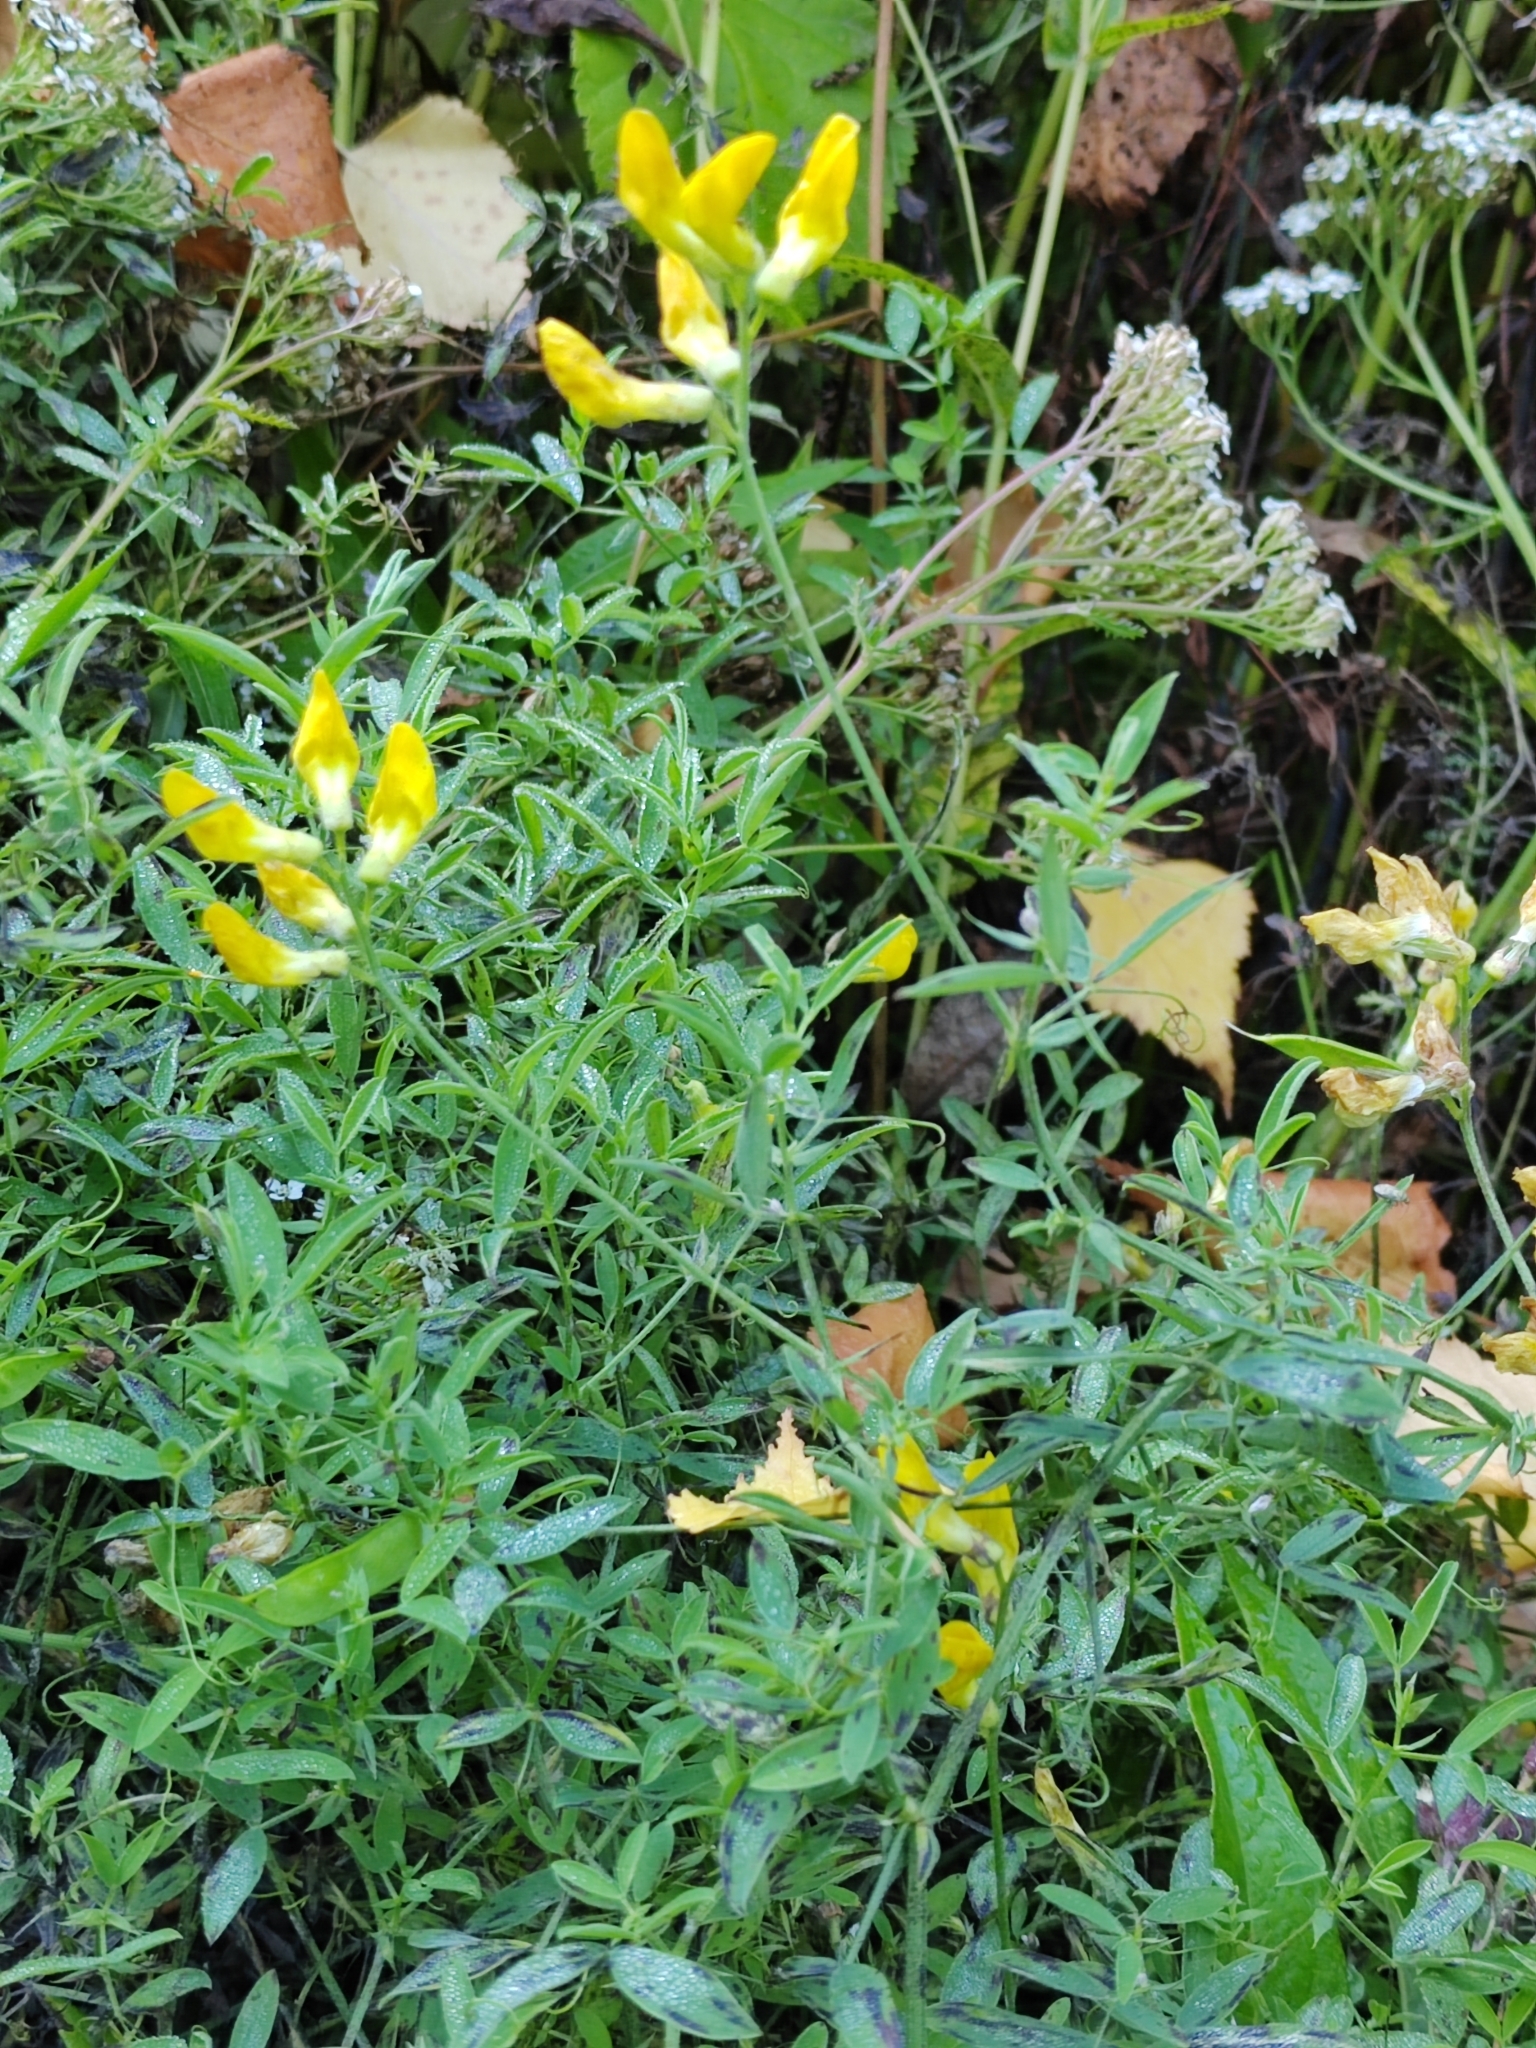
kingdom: Plantae
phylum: Tracheophyta
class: Magnoliopsida
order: Fabales
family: Fabaceae
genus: Lathyrus
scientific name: Lathyrus pratensis
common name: Meadow vetchling
